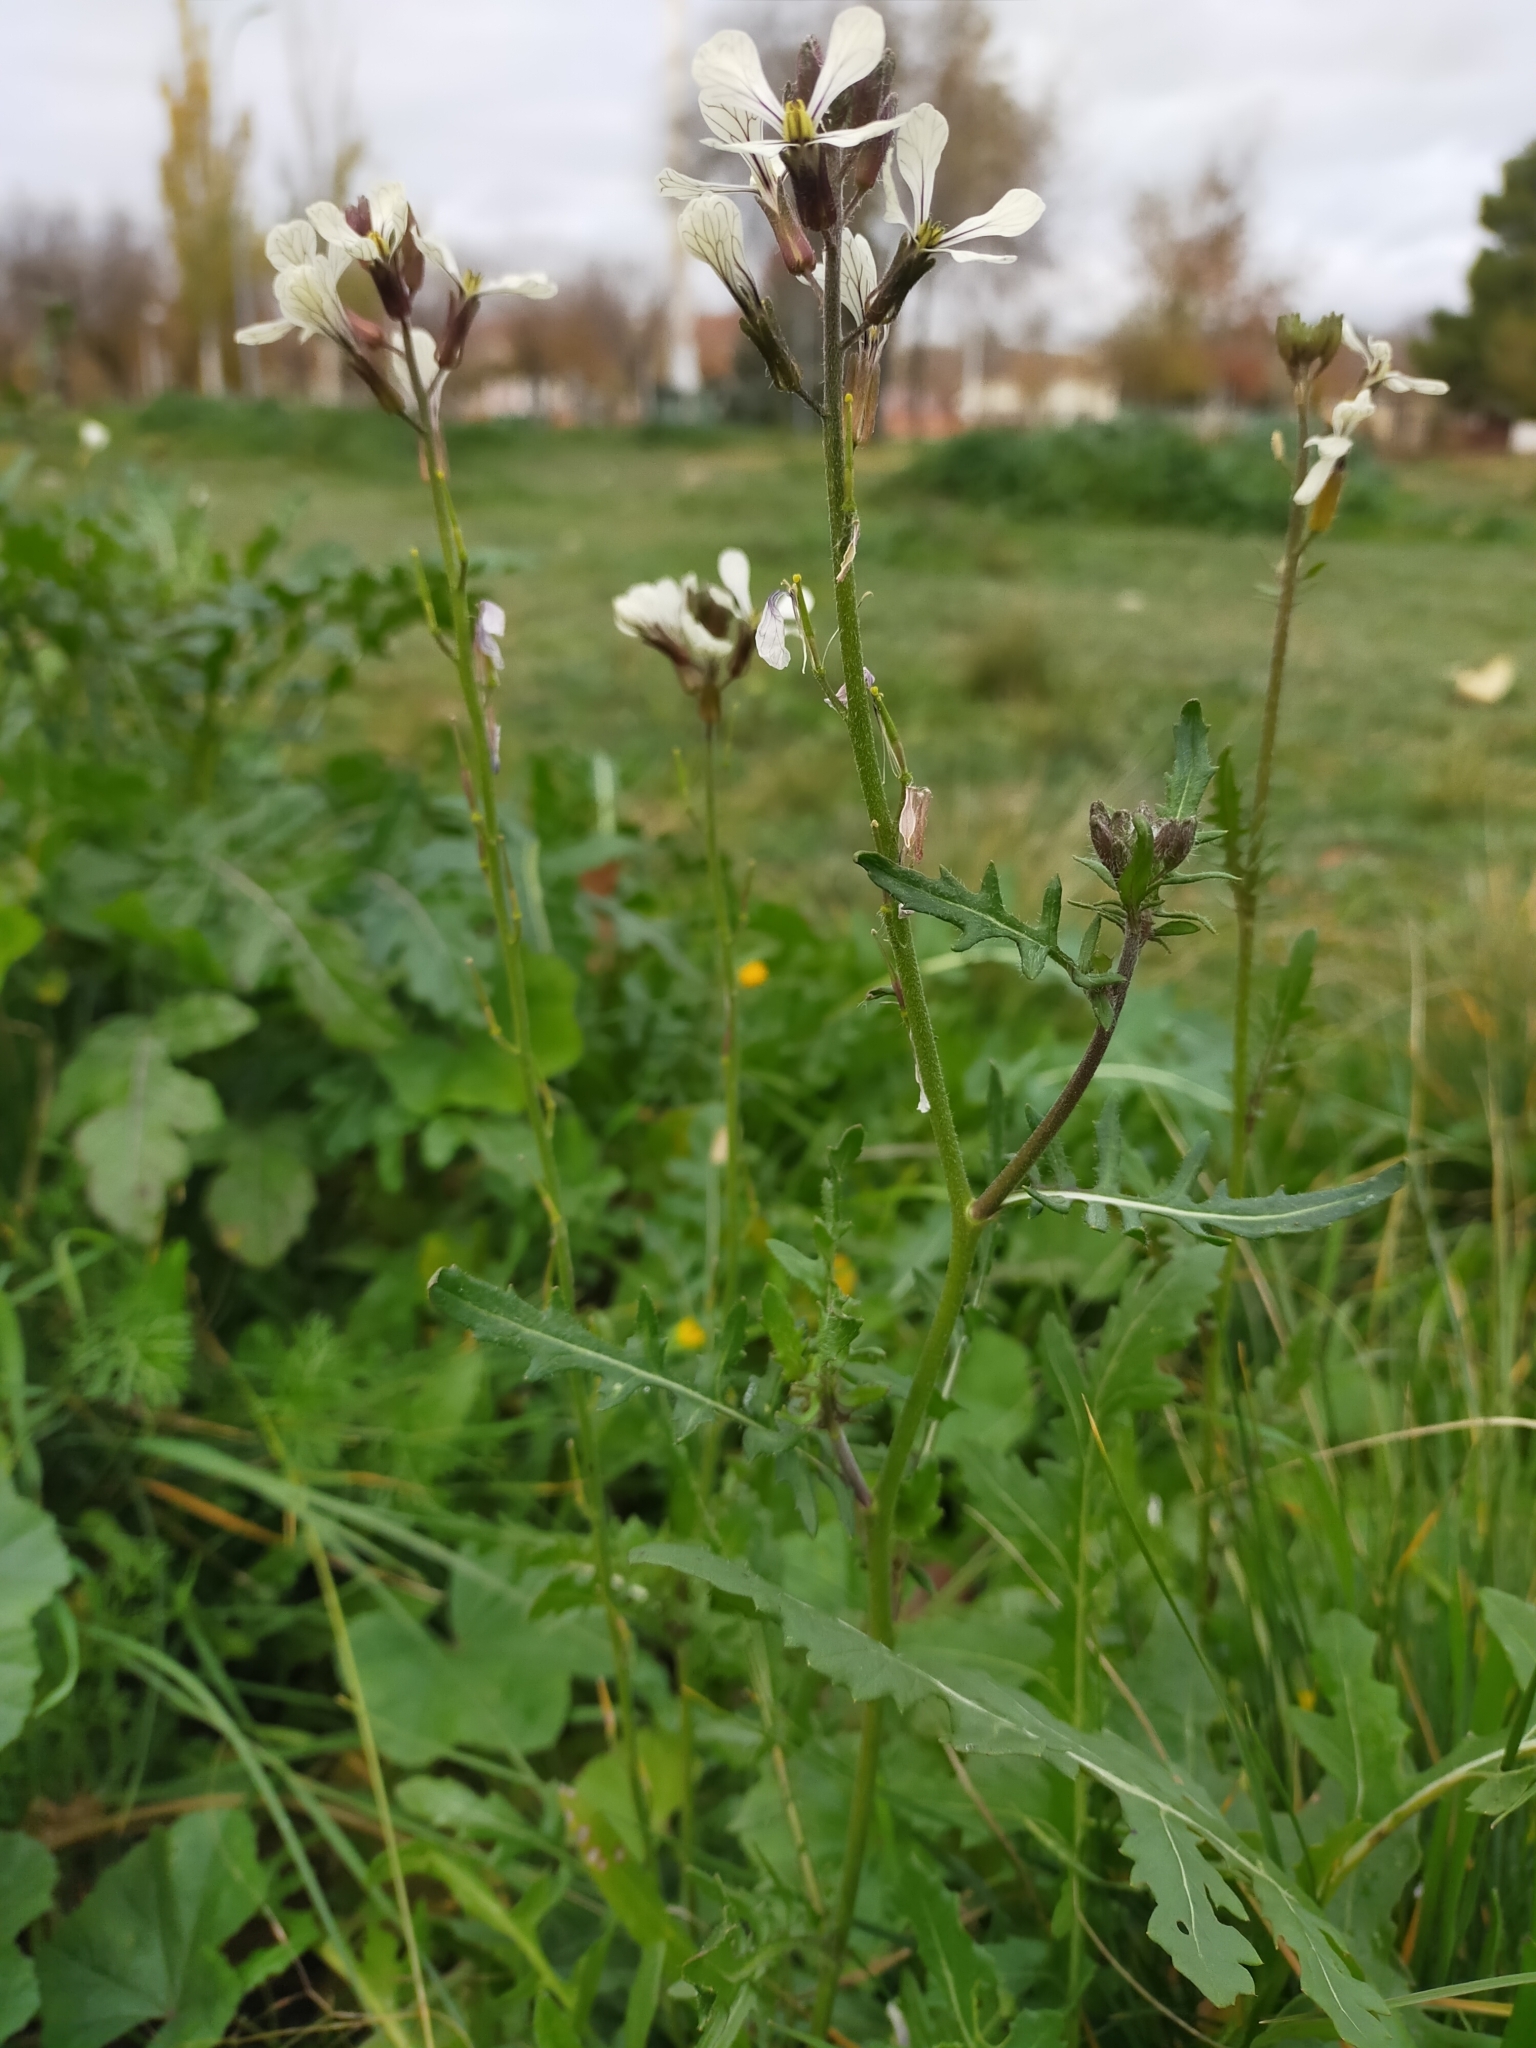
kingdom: Plantae
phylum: Tracheophyta
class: Magnoliopsida
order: Brassicales
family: Brassicaceae
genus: Eruca
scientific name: Eruca vesicaria
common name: Garden rocket
